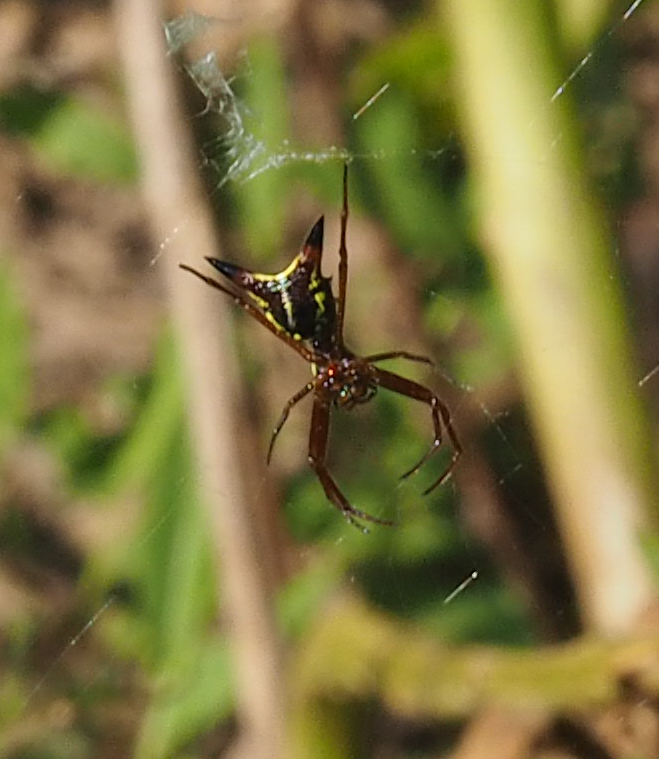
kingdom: Animalia
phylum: Arthropoda
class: Arachnida
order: Araneae
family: Araneidae
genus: Micrathena
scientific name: Micrathena sagittata
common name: Orb weavers
